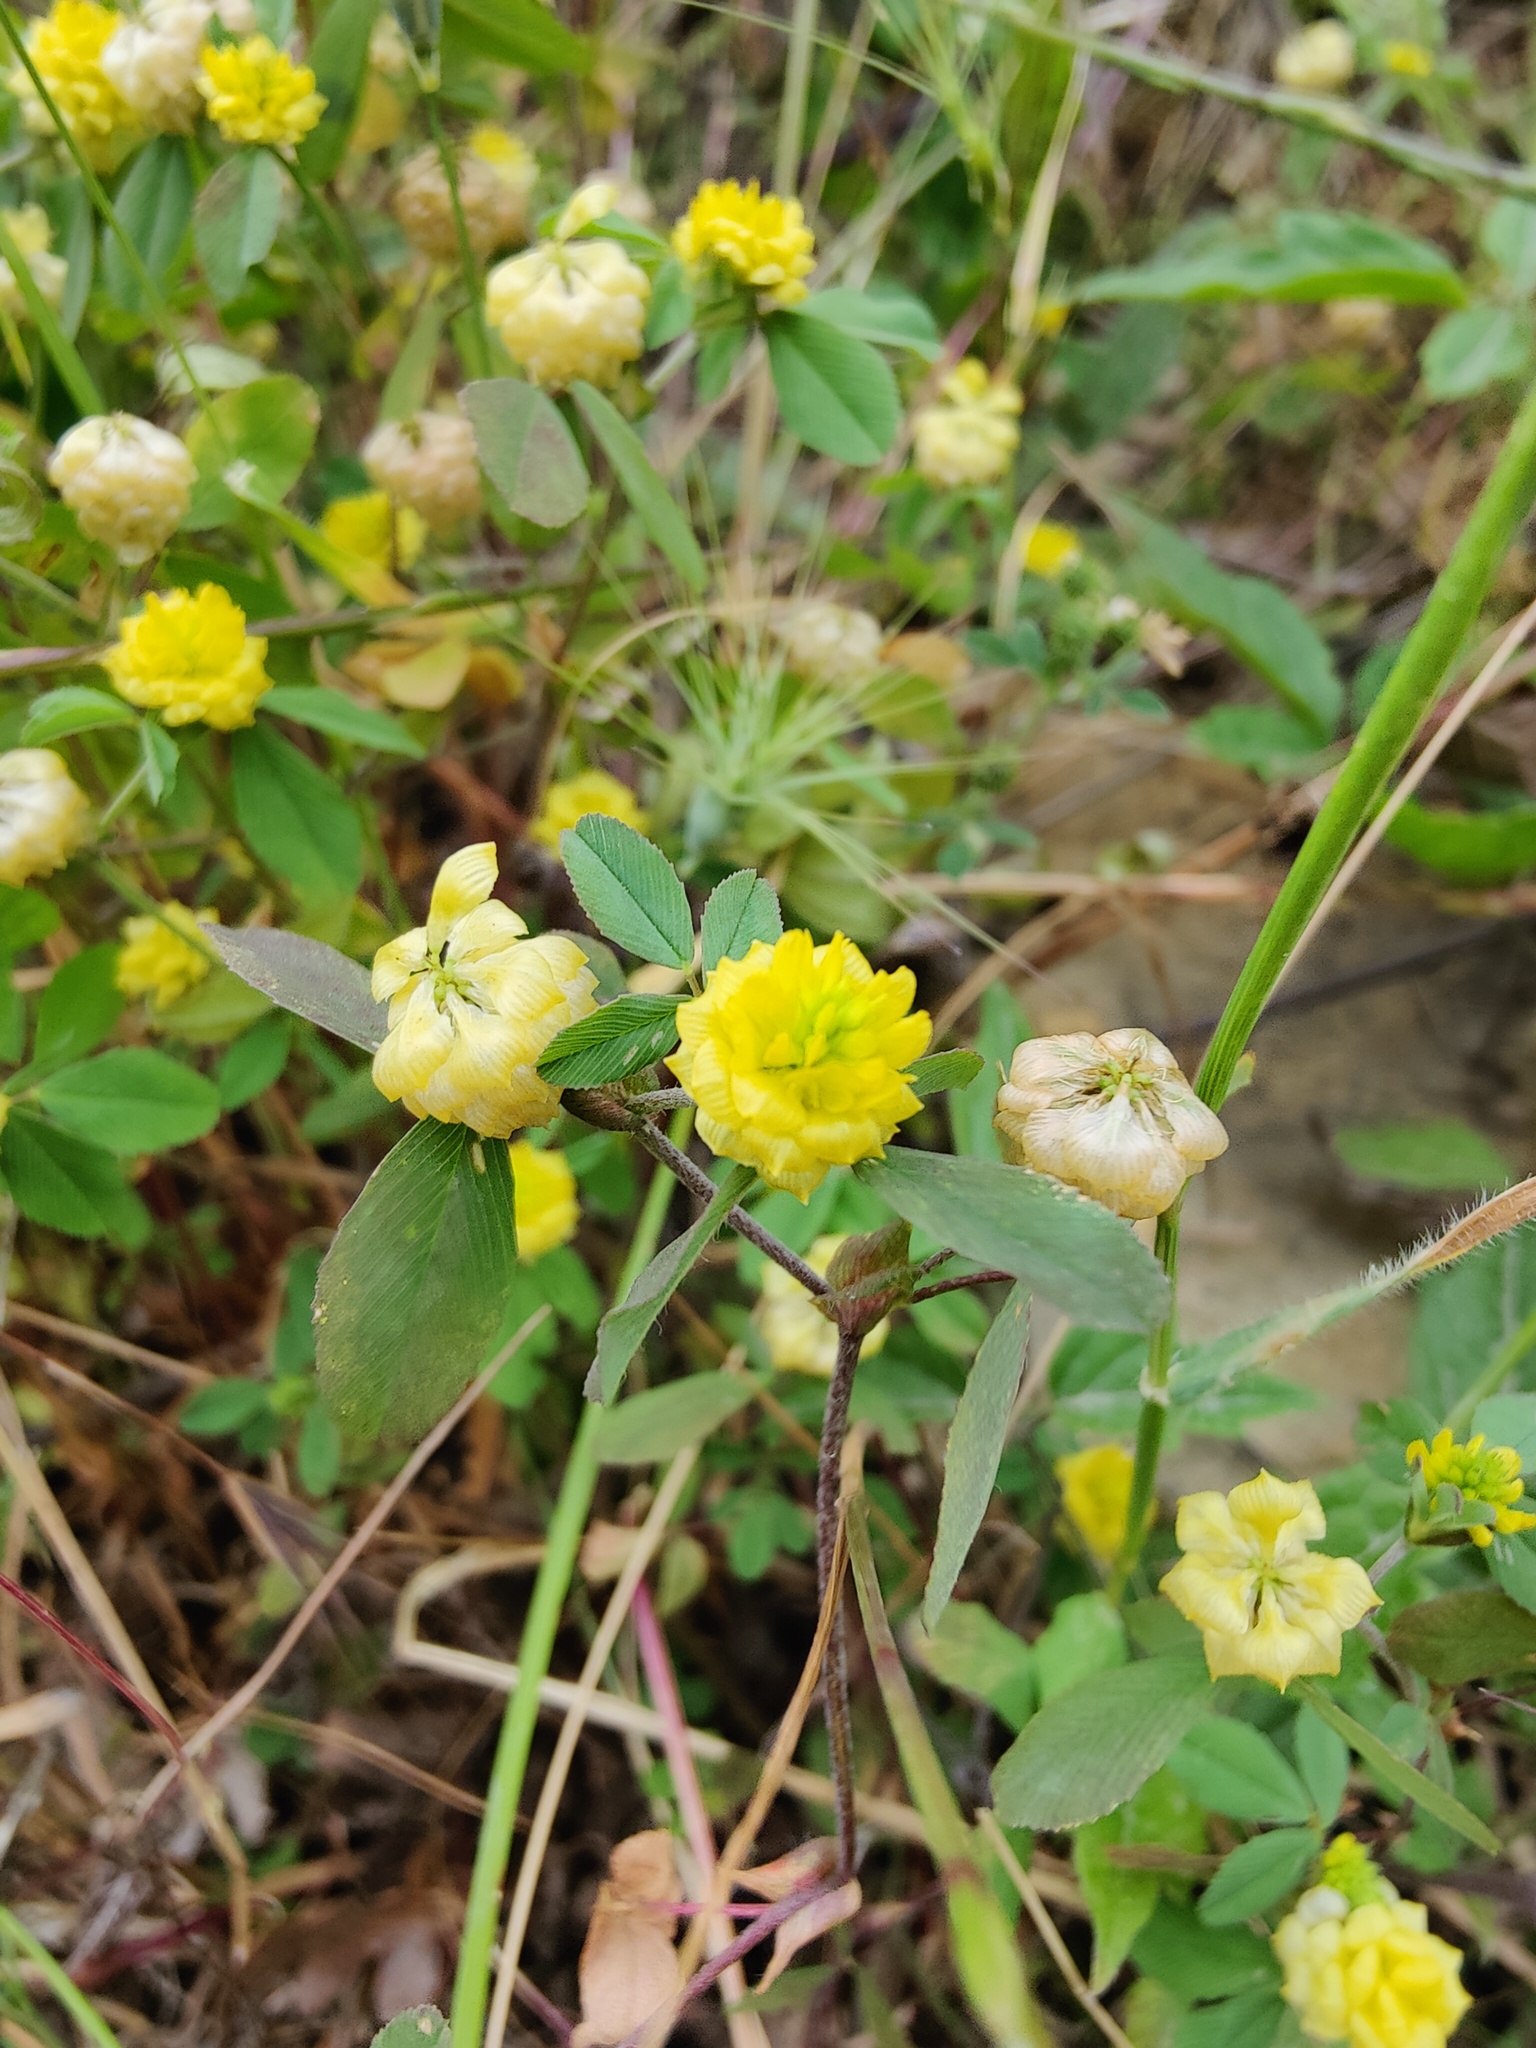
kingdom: Plantae
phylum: Tracheophyta
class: Magnoliopsida
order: Fabales
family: Fabaceae
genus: Trifolium
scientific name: Trifolium campestre
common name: Field clover
